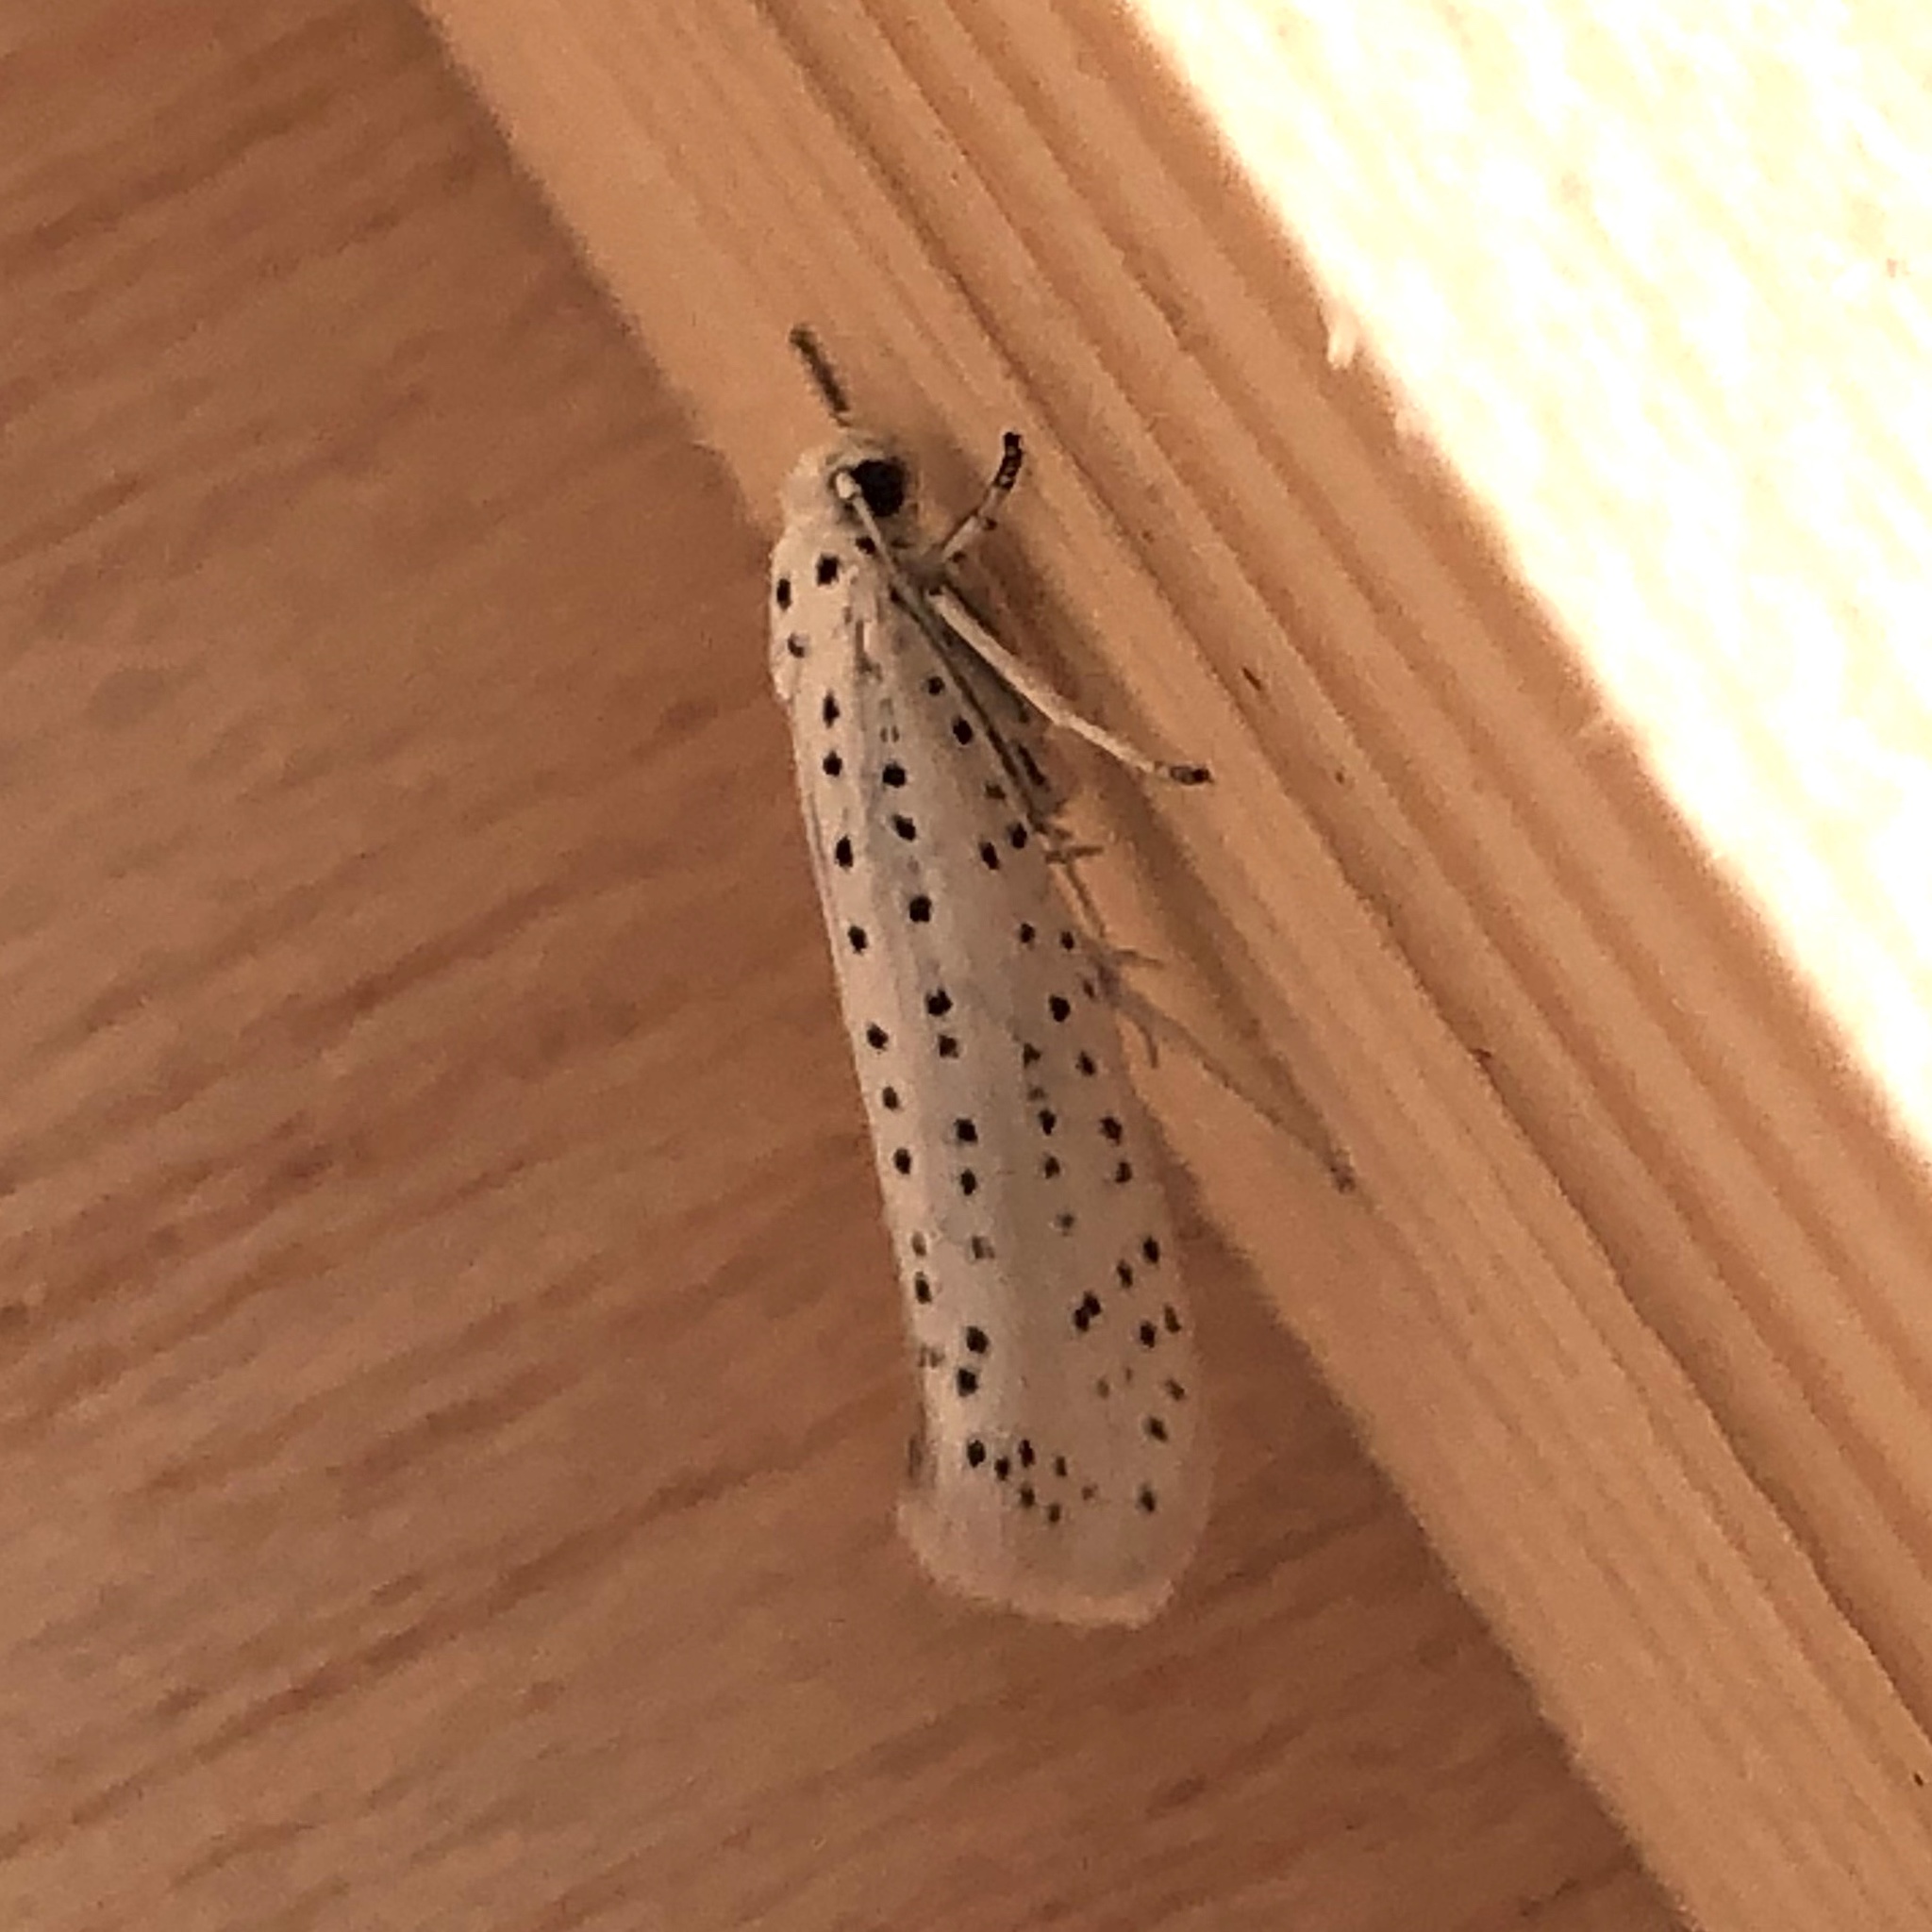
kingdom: Animalia
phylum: Arthropoda
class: Insecta
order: Lepidoptera
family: Yponomeutidae
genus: Yponomeuta
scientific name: Yponomeuta evonymella
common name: Bird-cherry ermine
